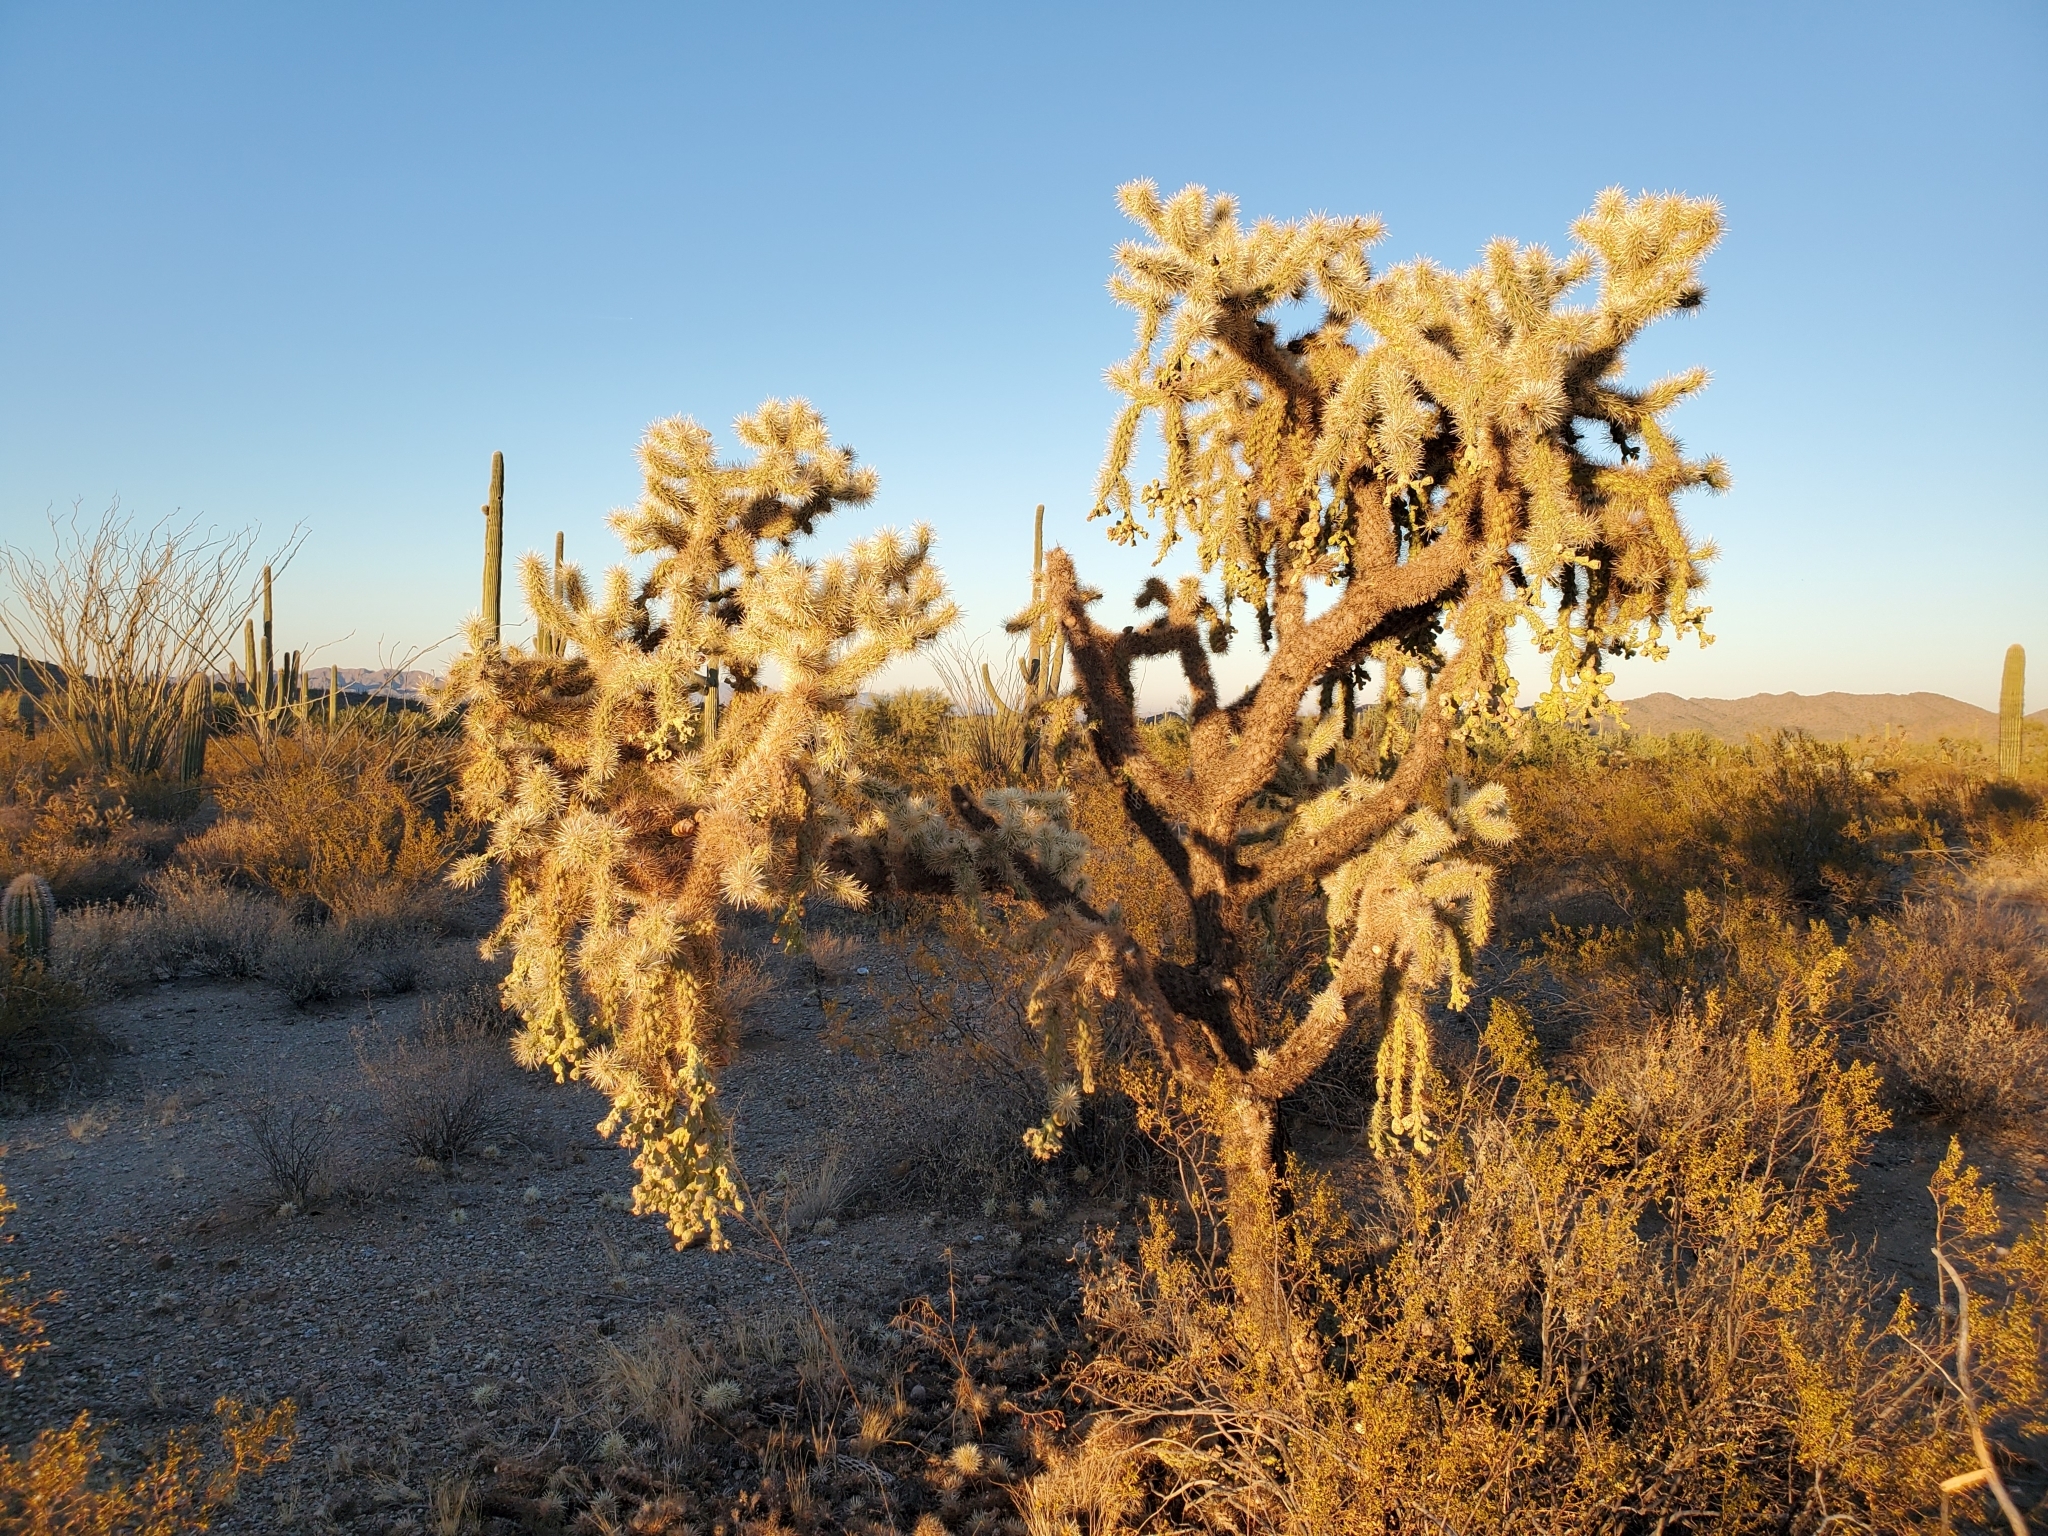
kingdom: Plantae
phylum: Tracheophyta
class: Magnoliopsida
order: Caryophyllales
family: Cactaceae
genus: Cylindropuntia
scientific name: Cylindropuntia fulgida
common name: Jumping cholla
